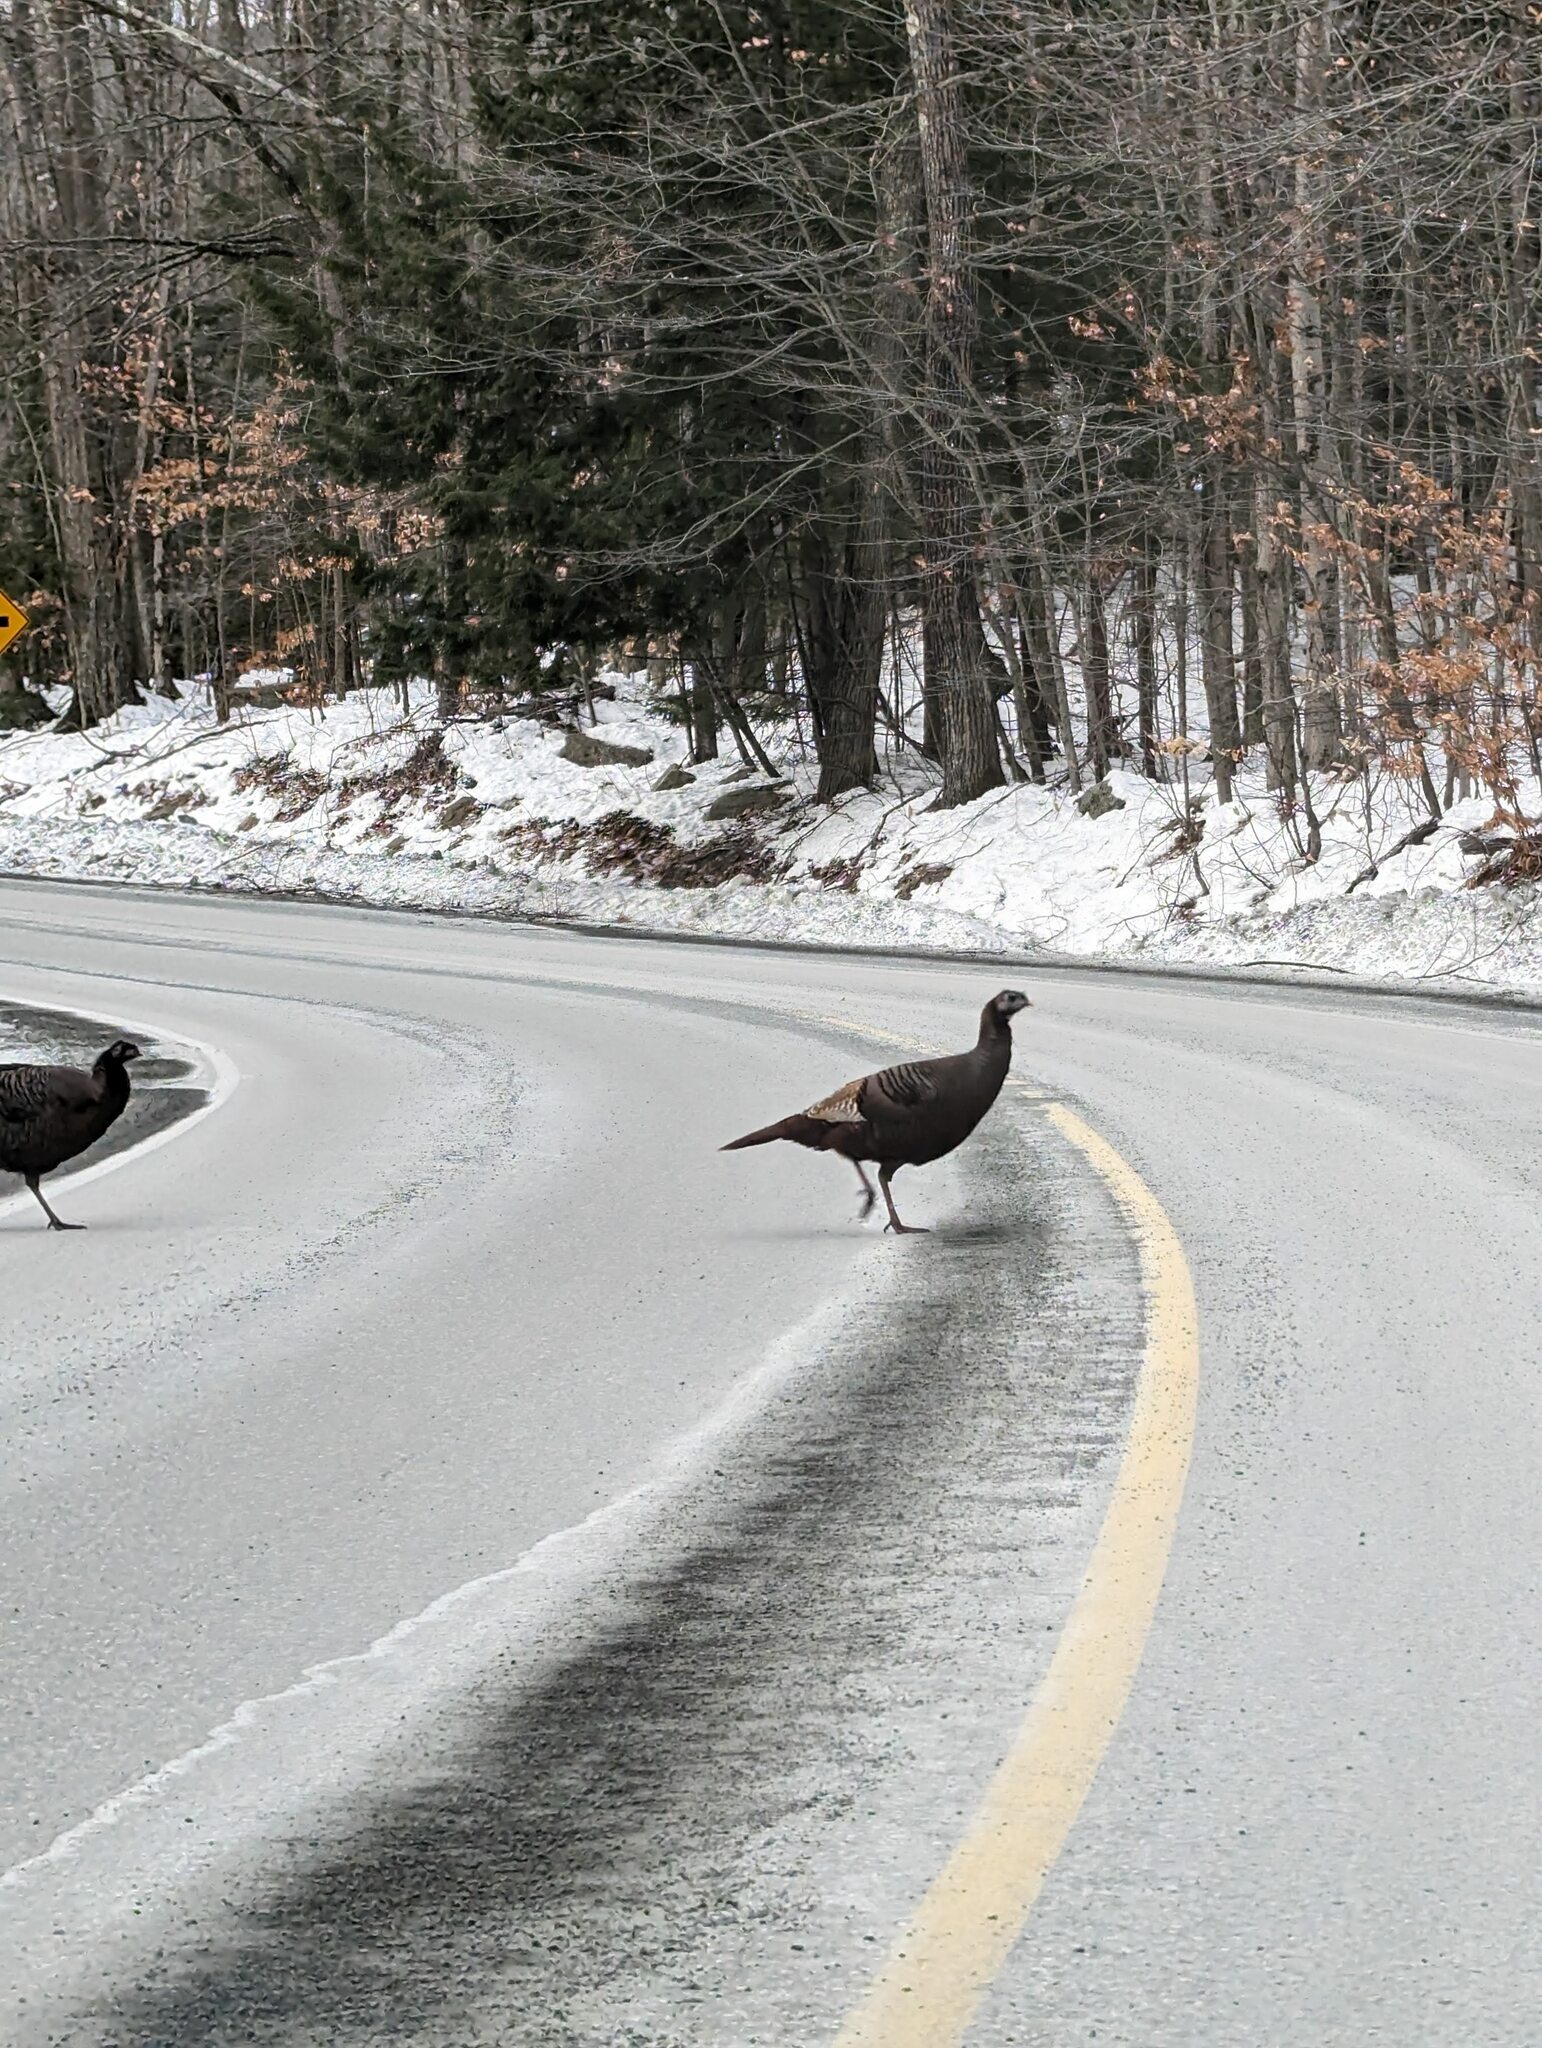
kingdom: Animalia
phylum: Chordata
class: Aves
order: Galliformes
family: Phasianidae
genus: Meleagris
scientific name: Meleagris gallopavo
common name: Wild turkey
